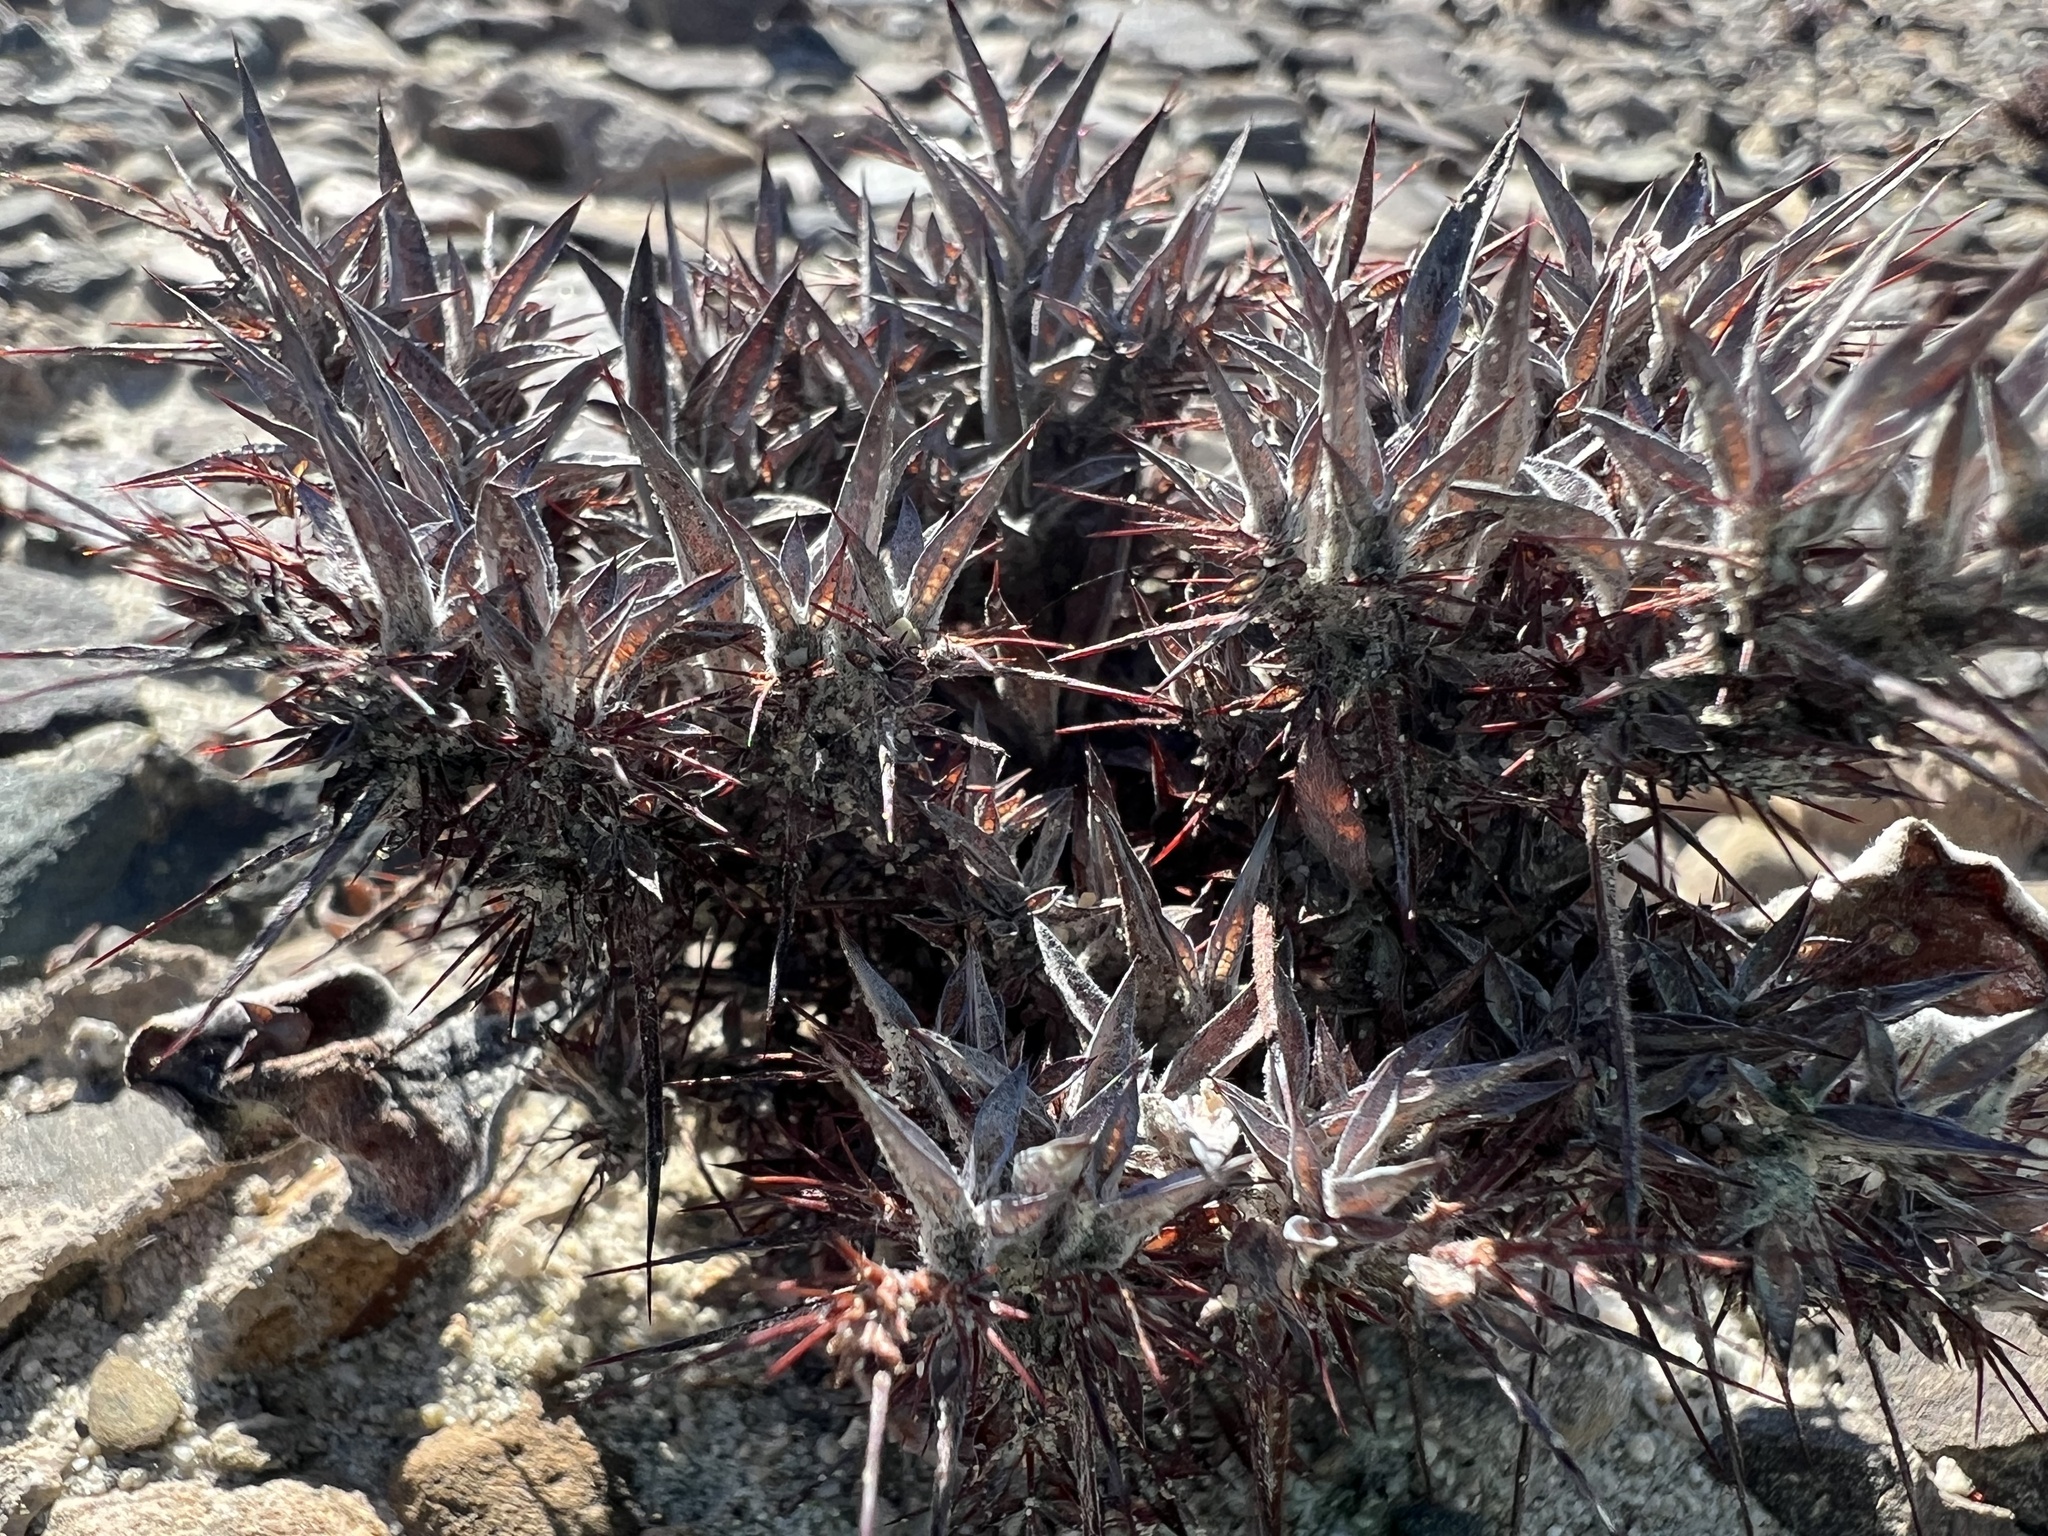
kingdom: Plantae
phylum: Tracheophyta
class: Magnoliopsida
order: Caryophyllales
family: Polygonaceae
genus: Chorizanthe
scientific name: Chorizanthe rigida
